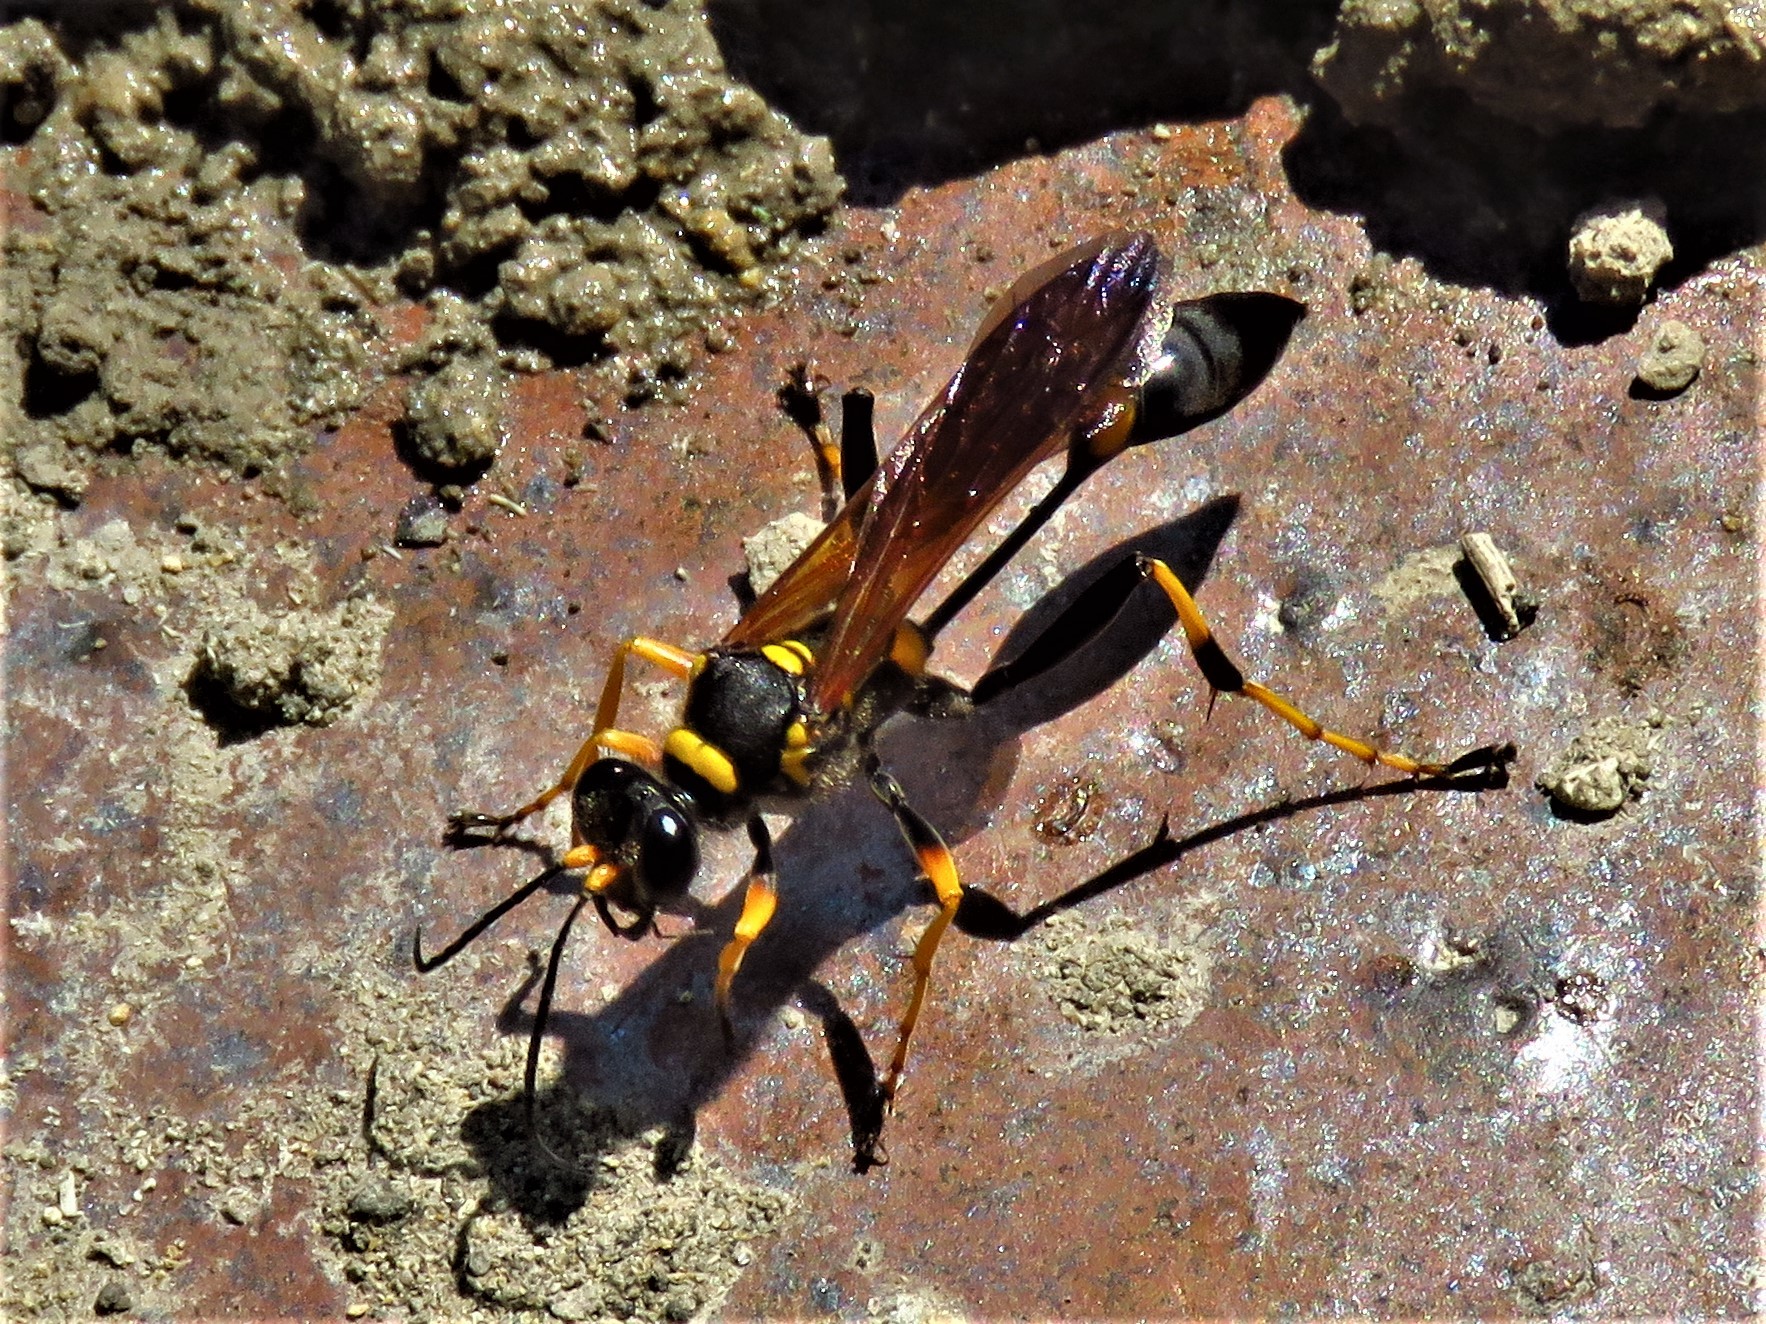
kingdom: Animalia
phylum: Arthropoda
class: Insecta
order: Hymenoptera
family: Sphecidae
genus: Sceliphron
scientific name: Sceliphron caementarium
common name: Mud dauber
